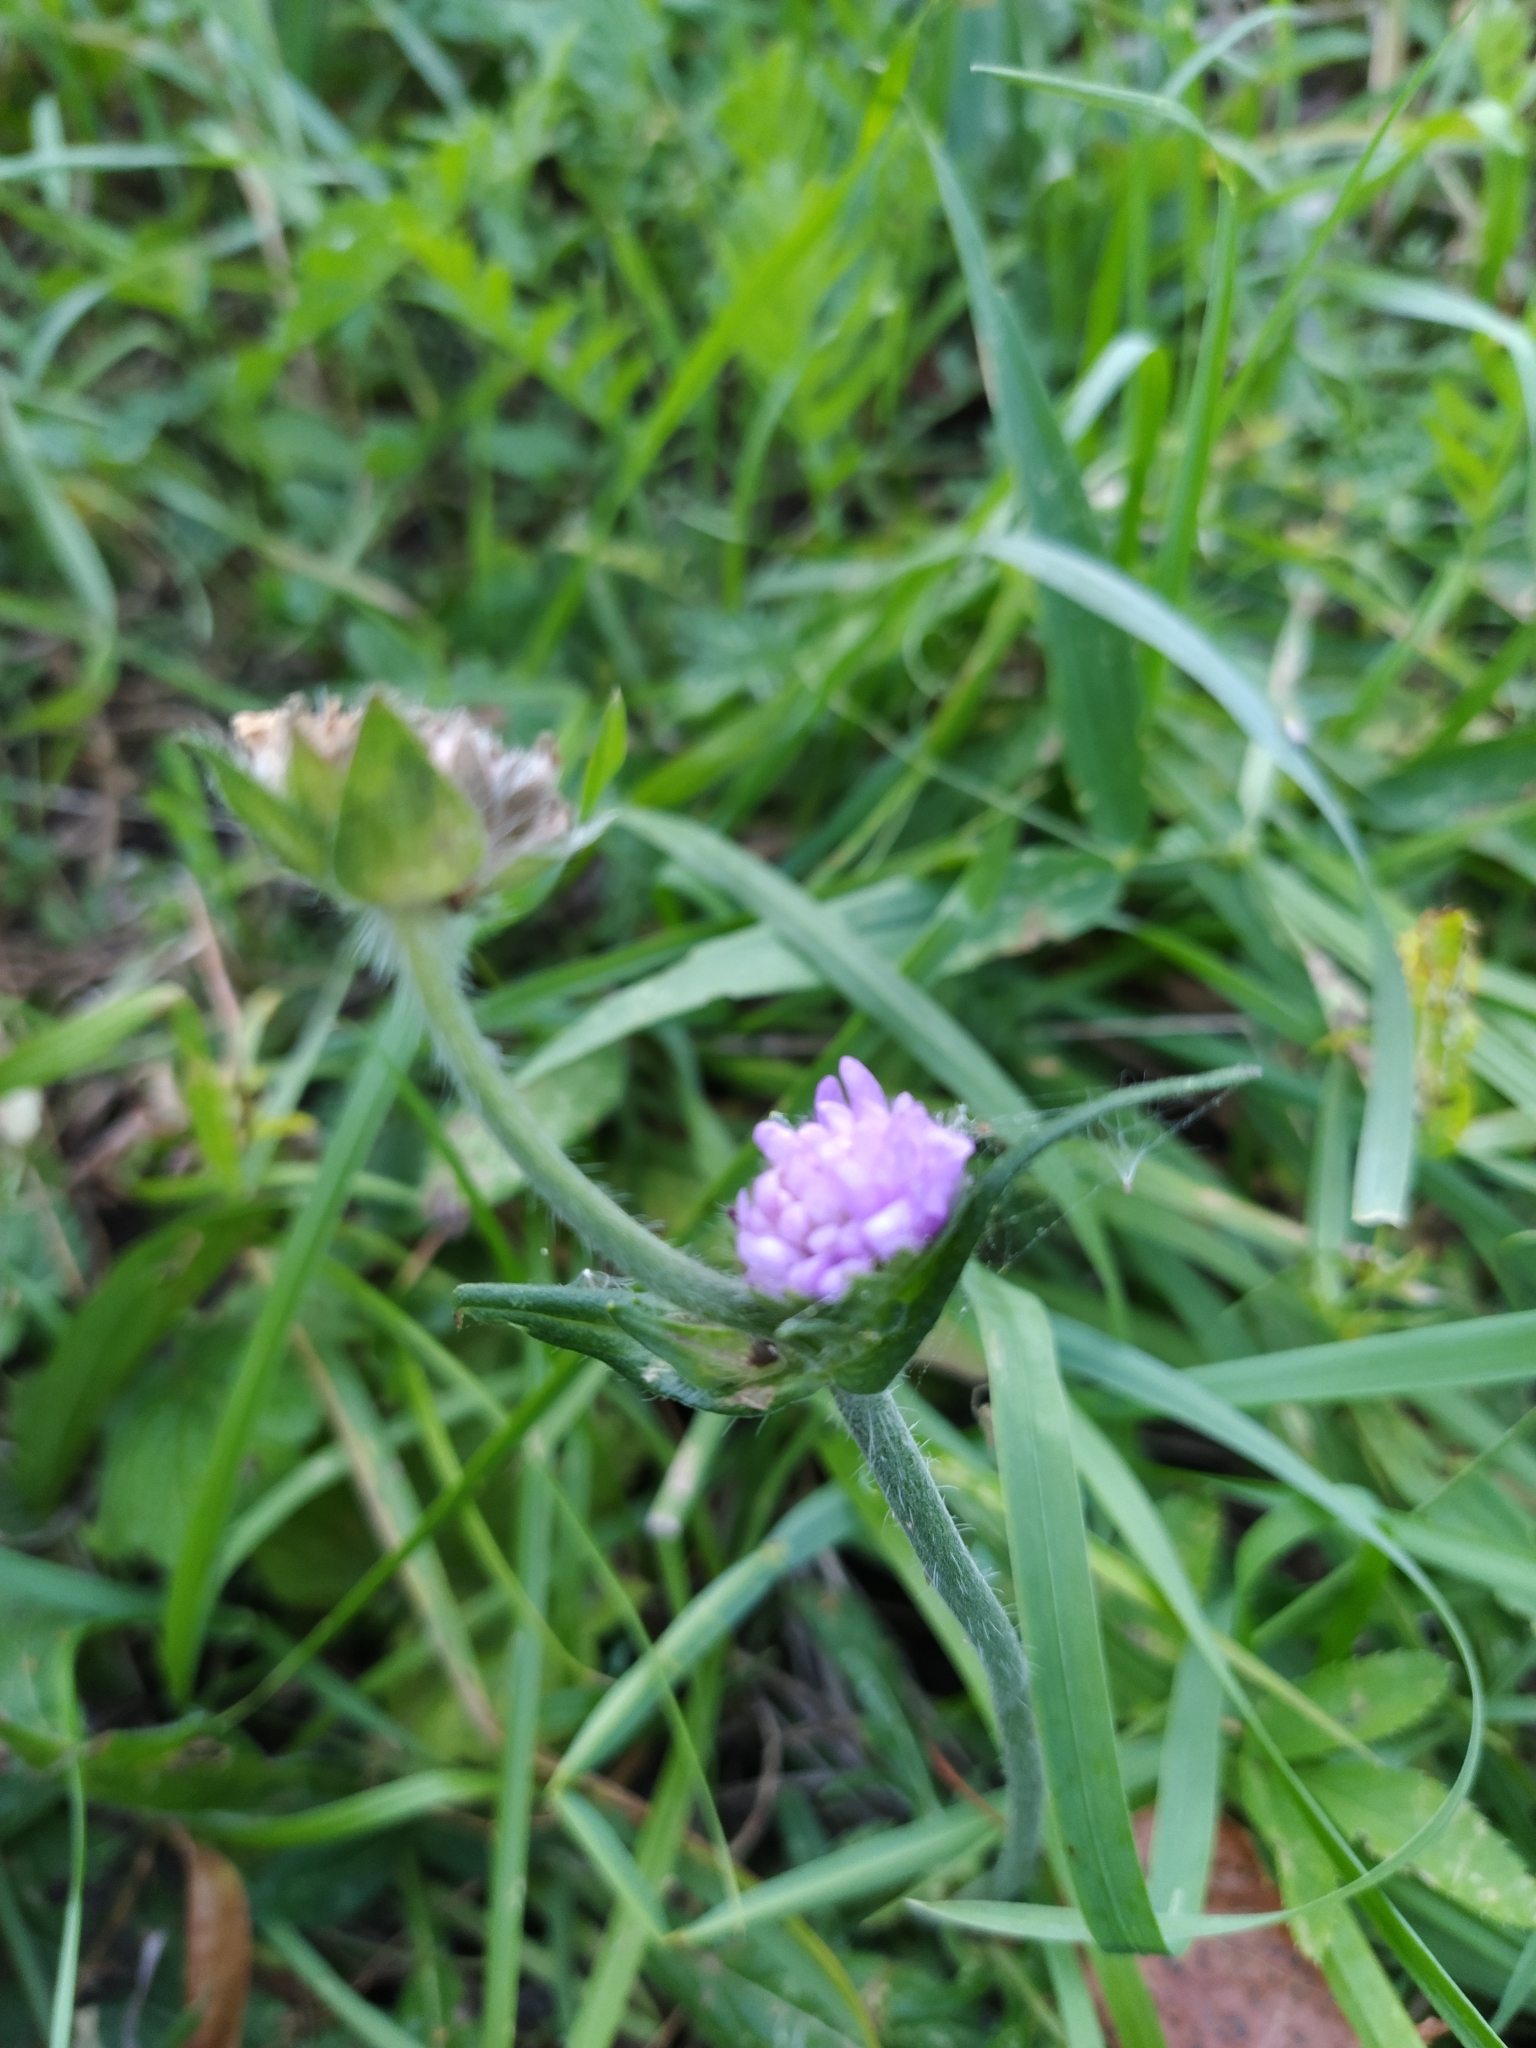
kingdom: Plantae
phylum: Tracheophyta
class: Magnoliopsida
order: Dipsacales
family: Caprifoliaceae
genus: Knautia
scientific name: Knautia arvensis
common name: Field scabiosa
